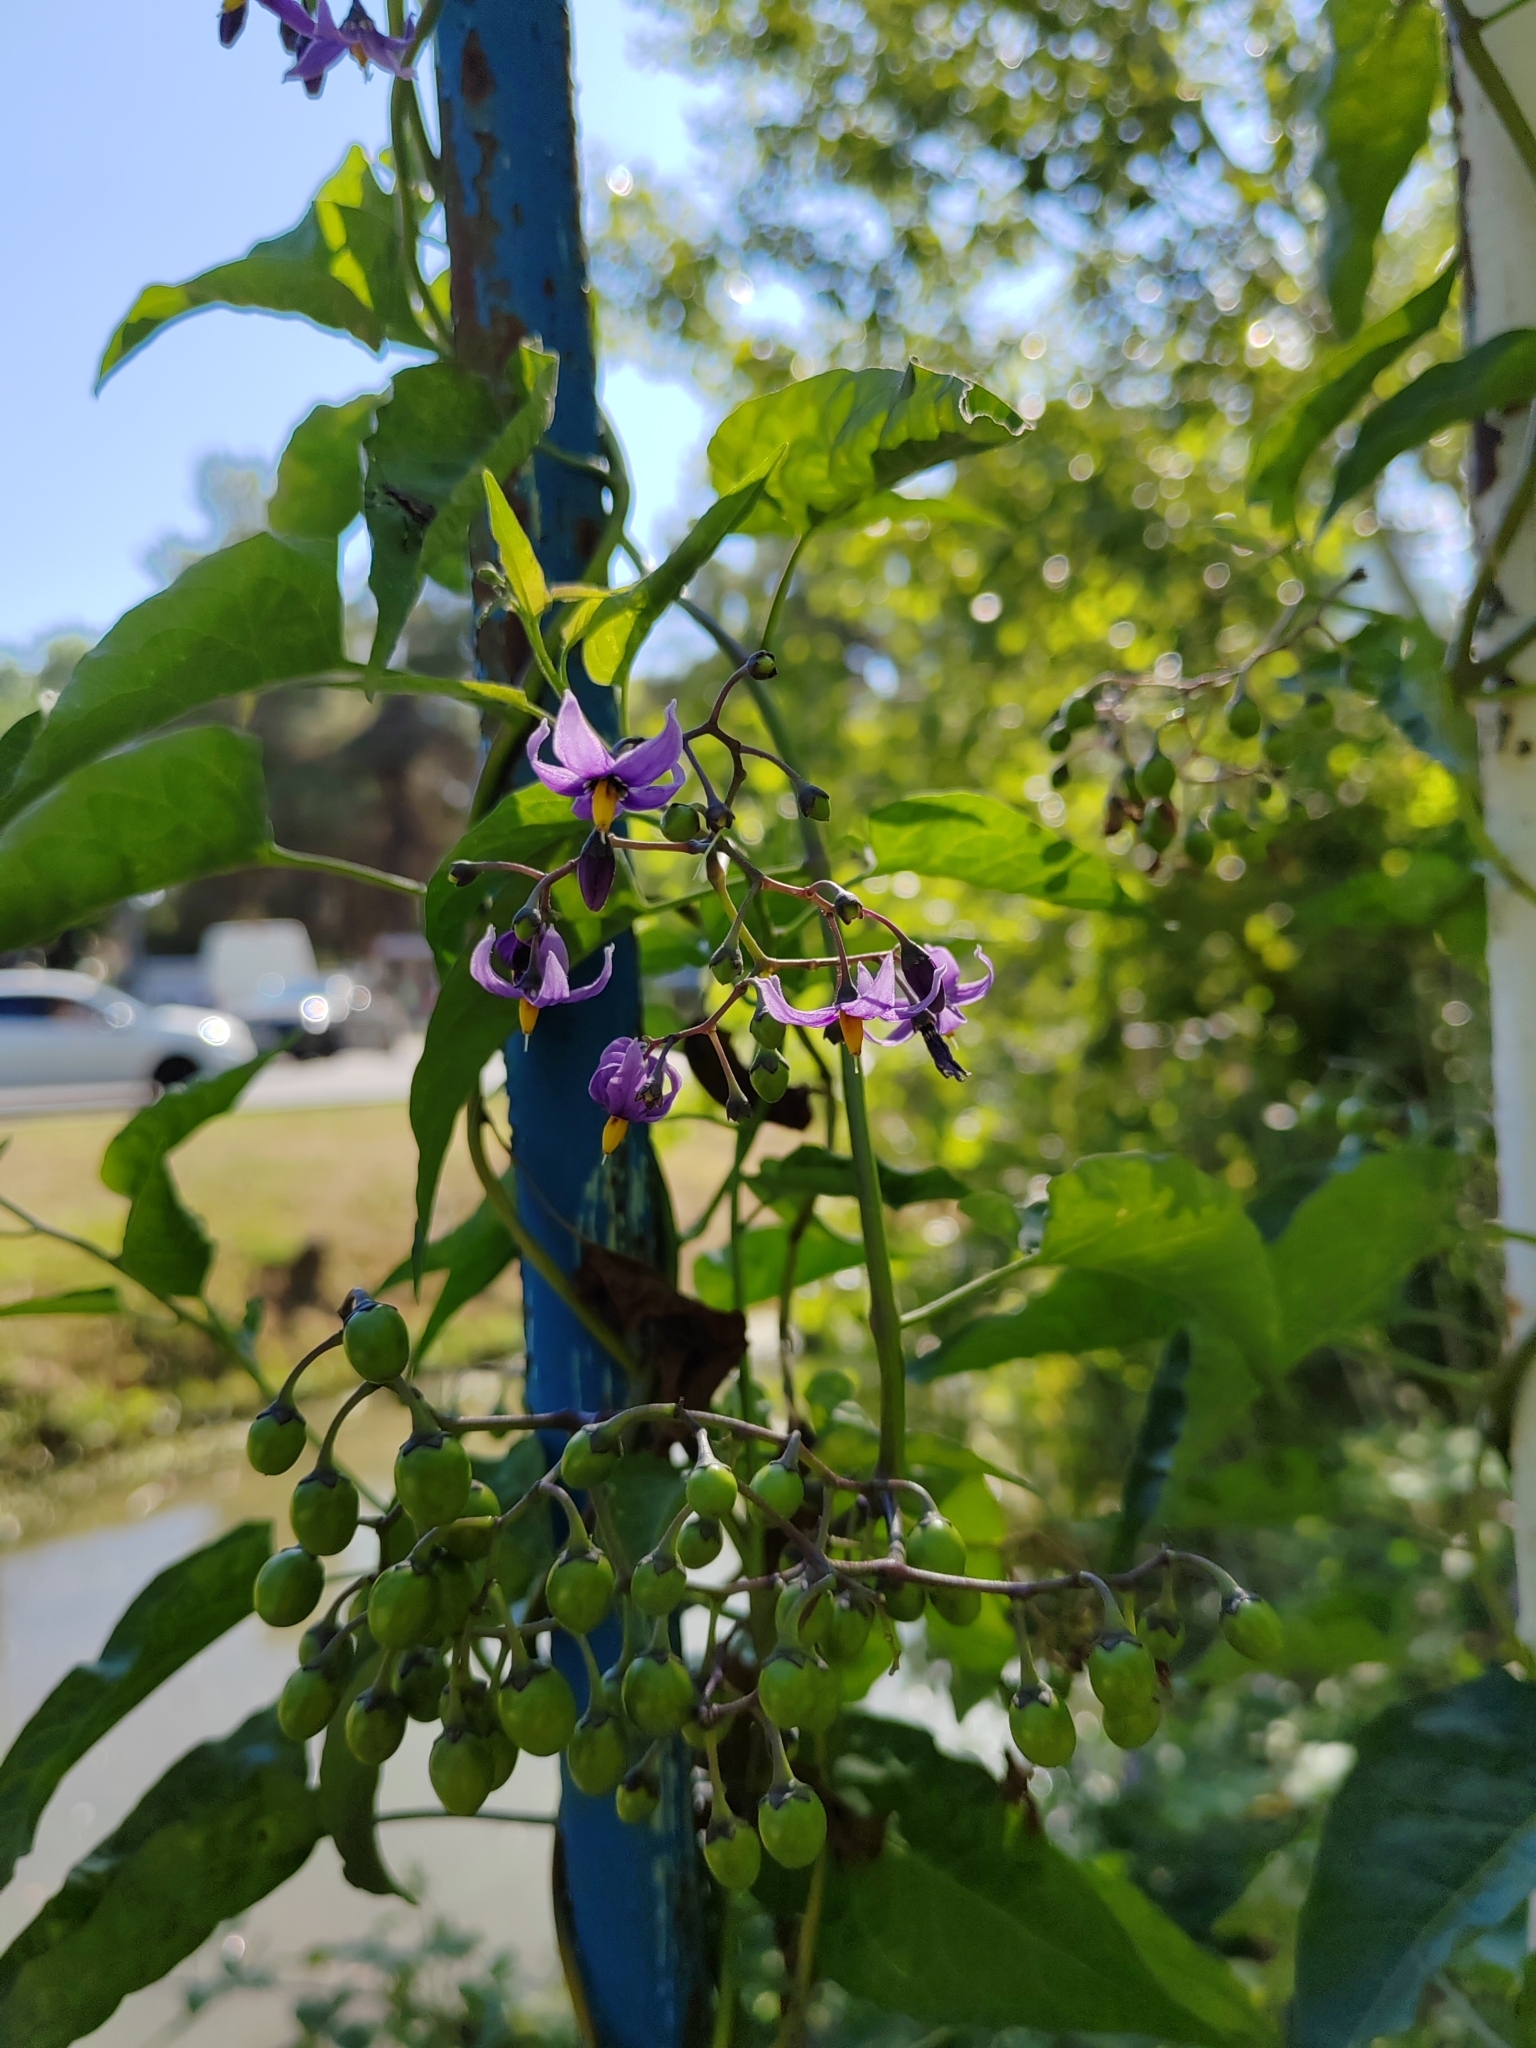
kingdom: Plantae
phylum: Tracheophyta
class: Magnoliopsida
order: Solanales
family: Solanaceae
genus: Solanum
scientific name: Solanum dulcamara
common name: Climbing nightshade
